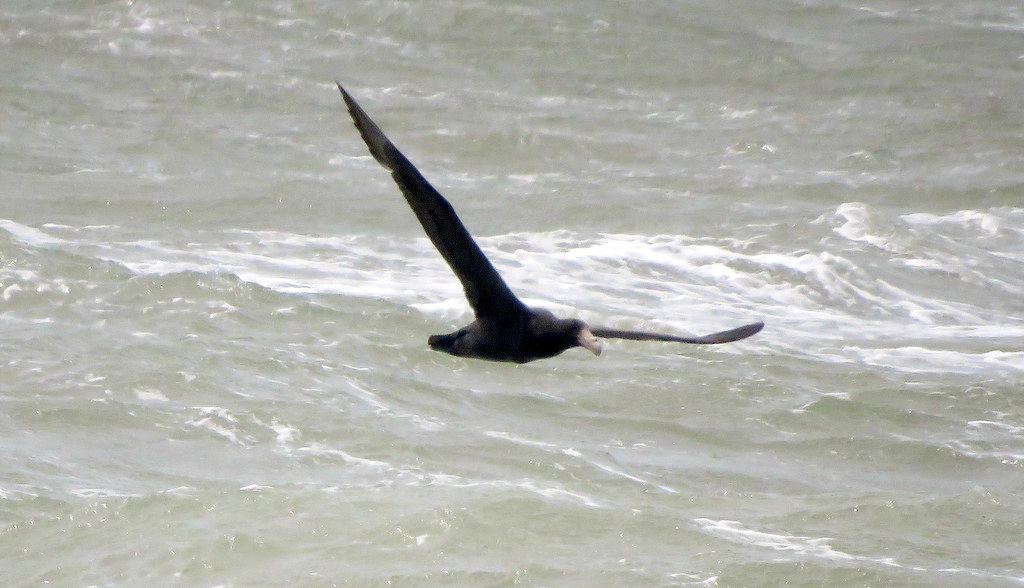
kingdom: Animalia
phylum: Chordata
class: Aves
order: Procellariiformes
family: Procellariidae
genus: Macronectes
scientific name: Macronectes giganteus
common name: Southern giant petrel
